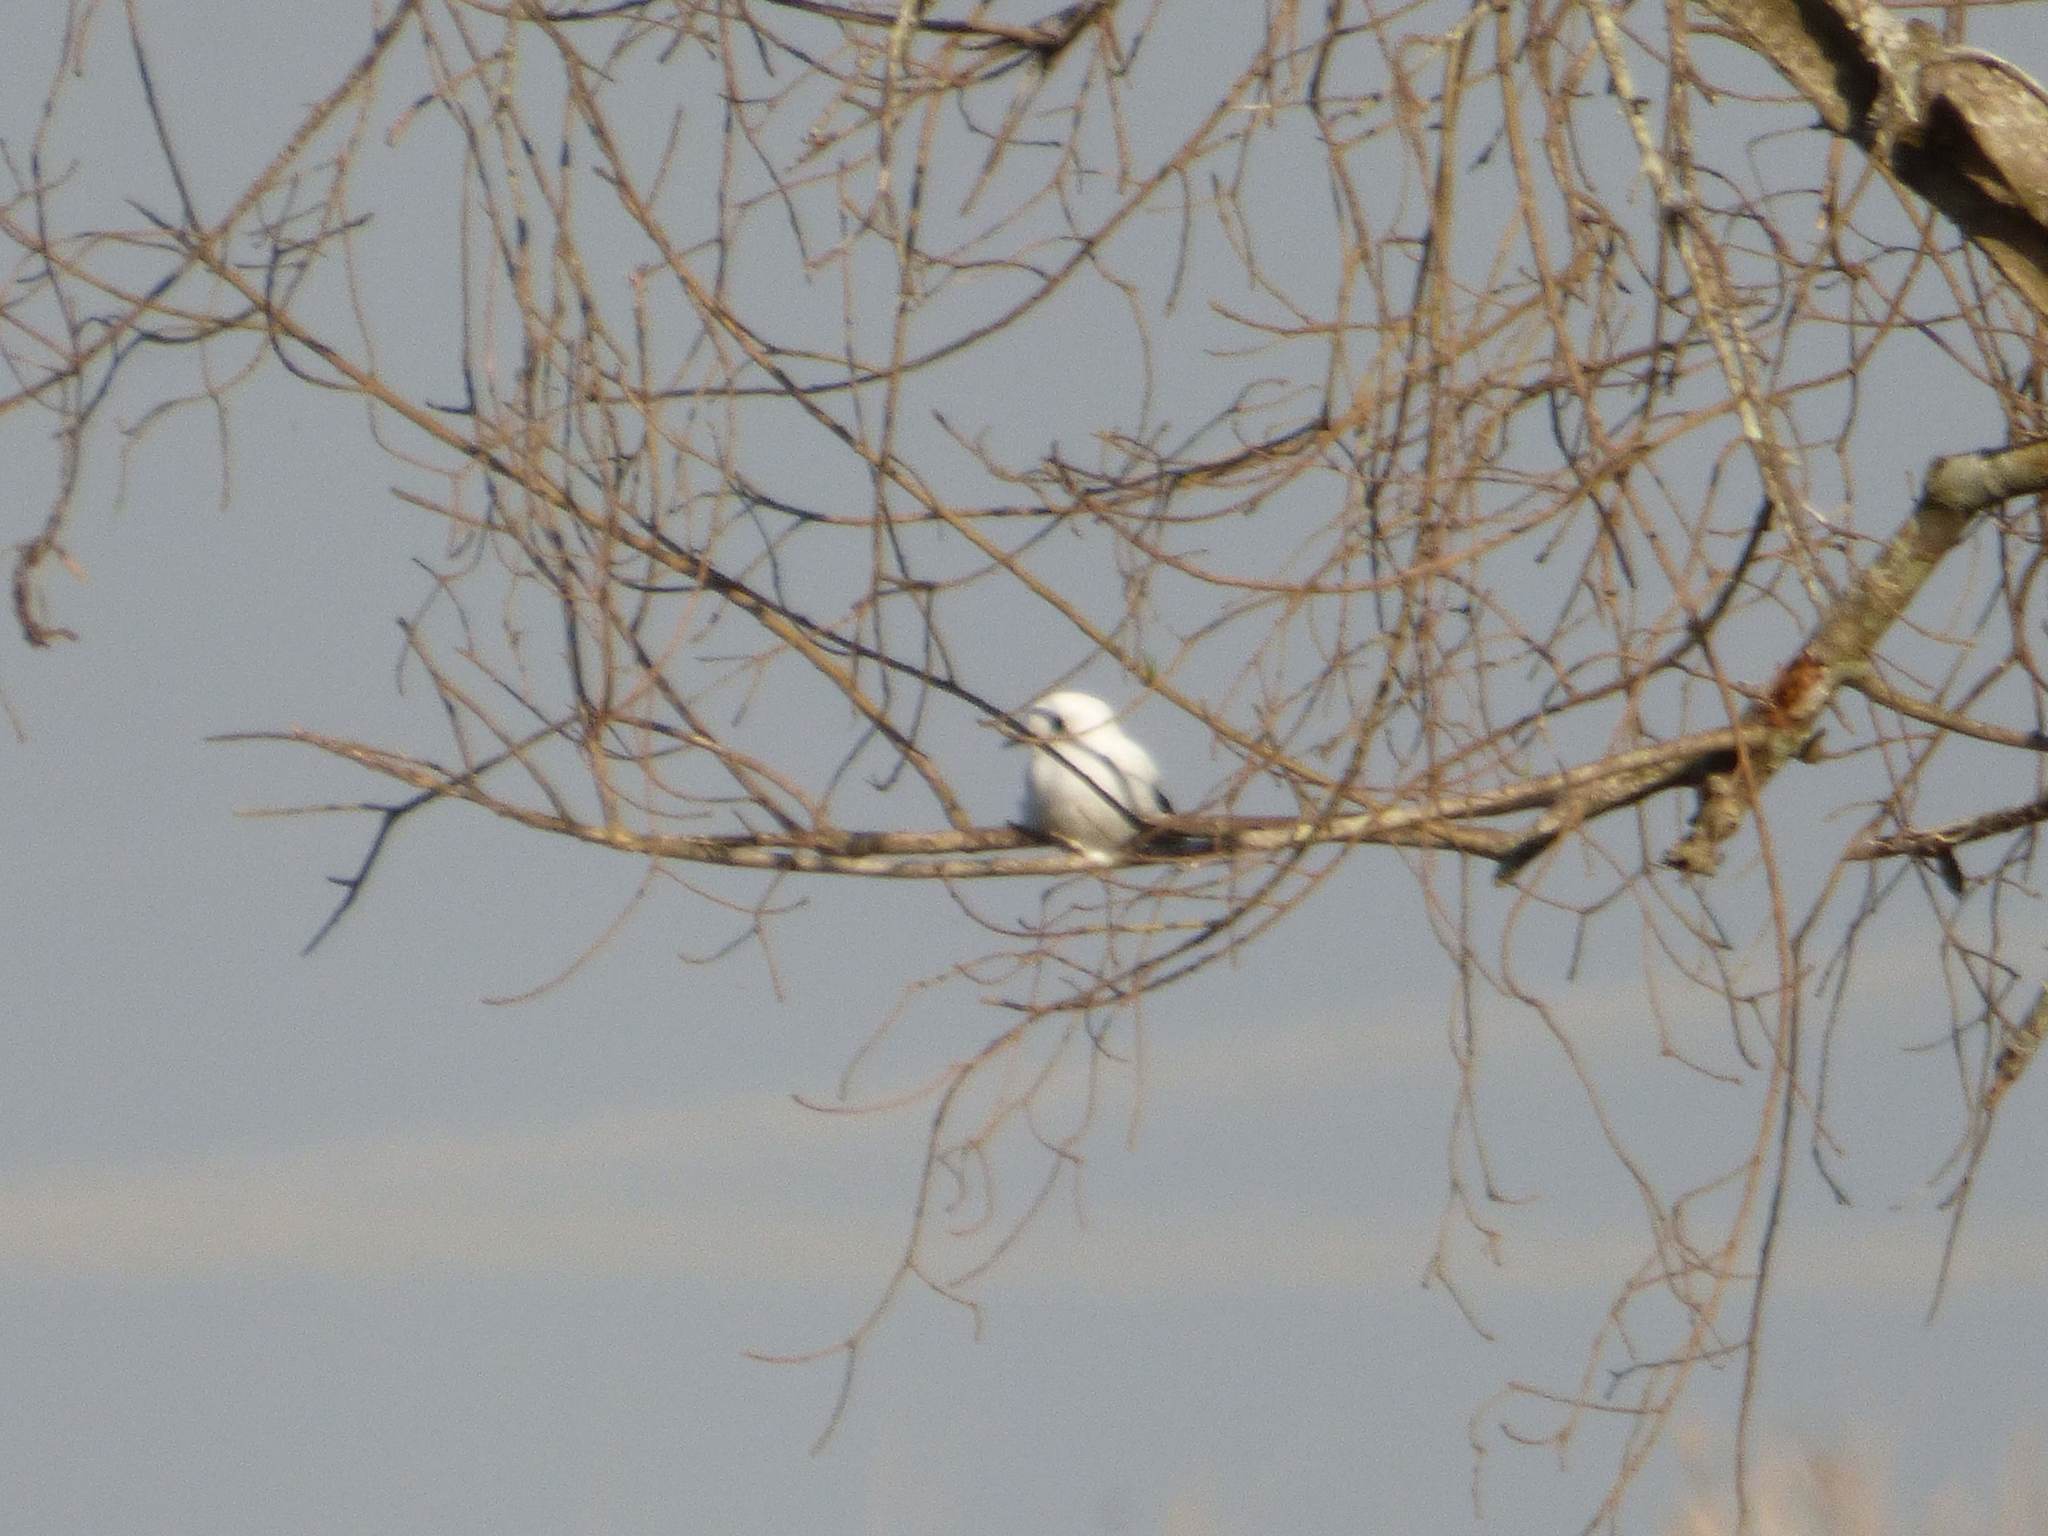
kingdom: Animalia
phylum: Chordata
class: Aves
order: Passeriformes
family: Tyrannidae
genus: Xolmis
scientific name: Xolmis irupero
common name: White monjita
